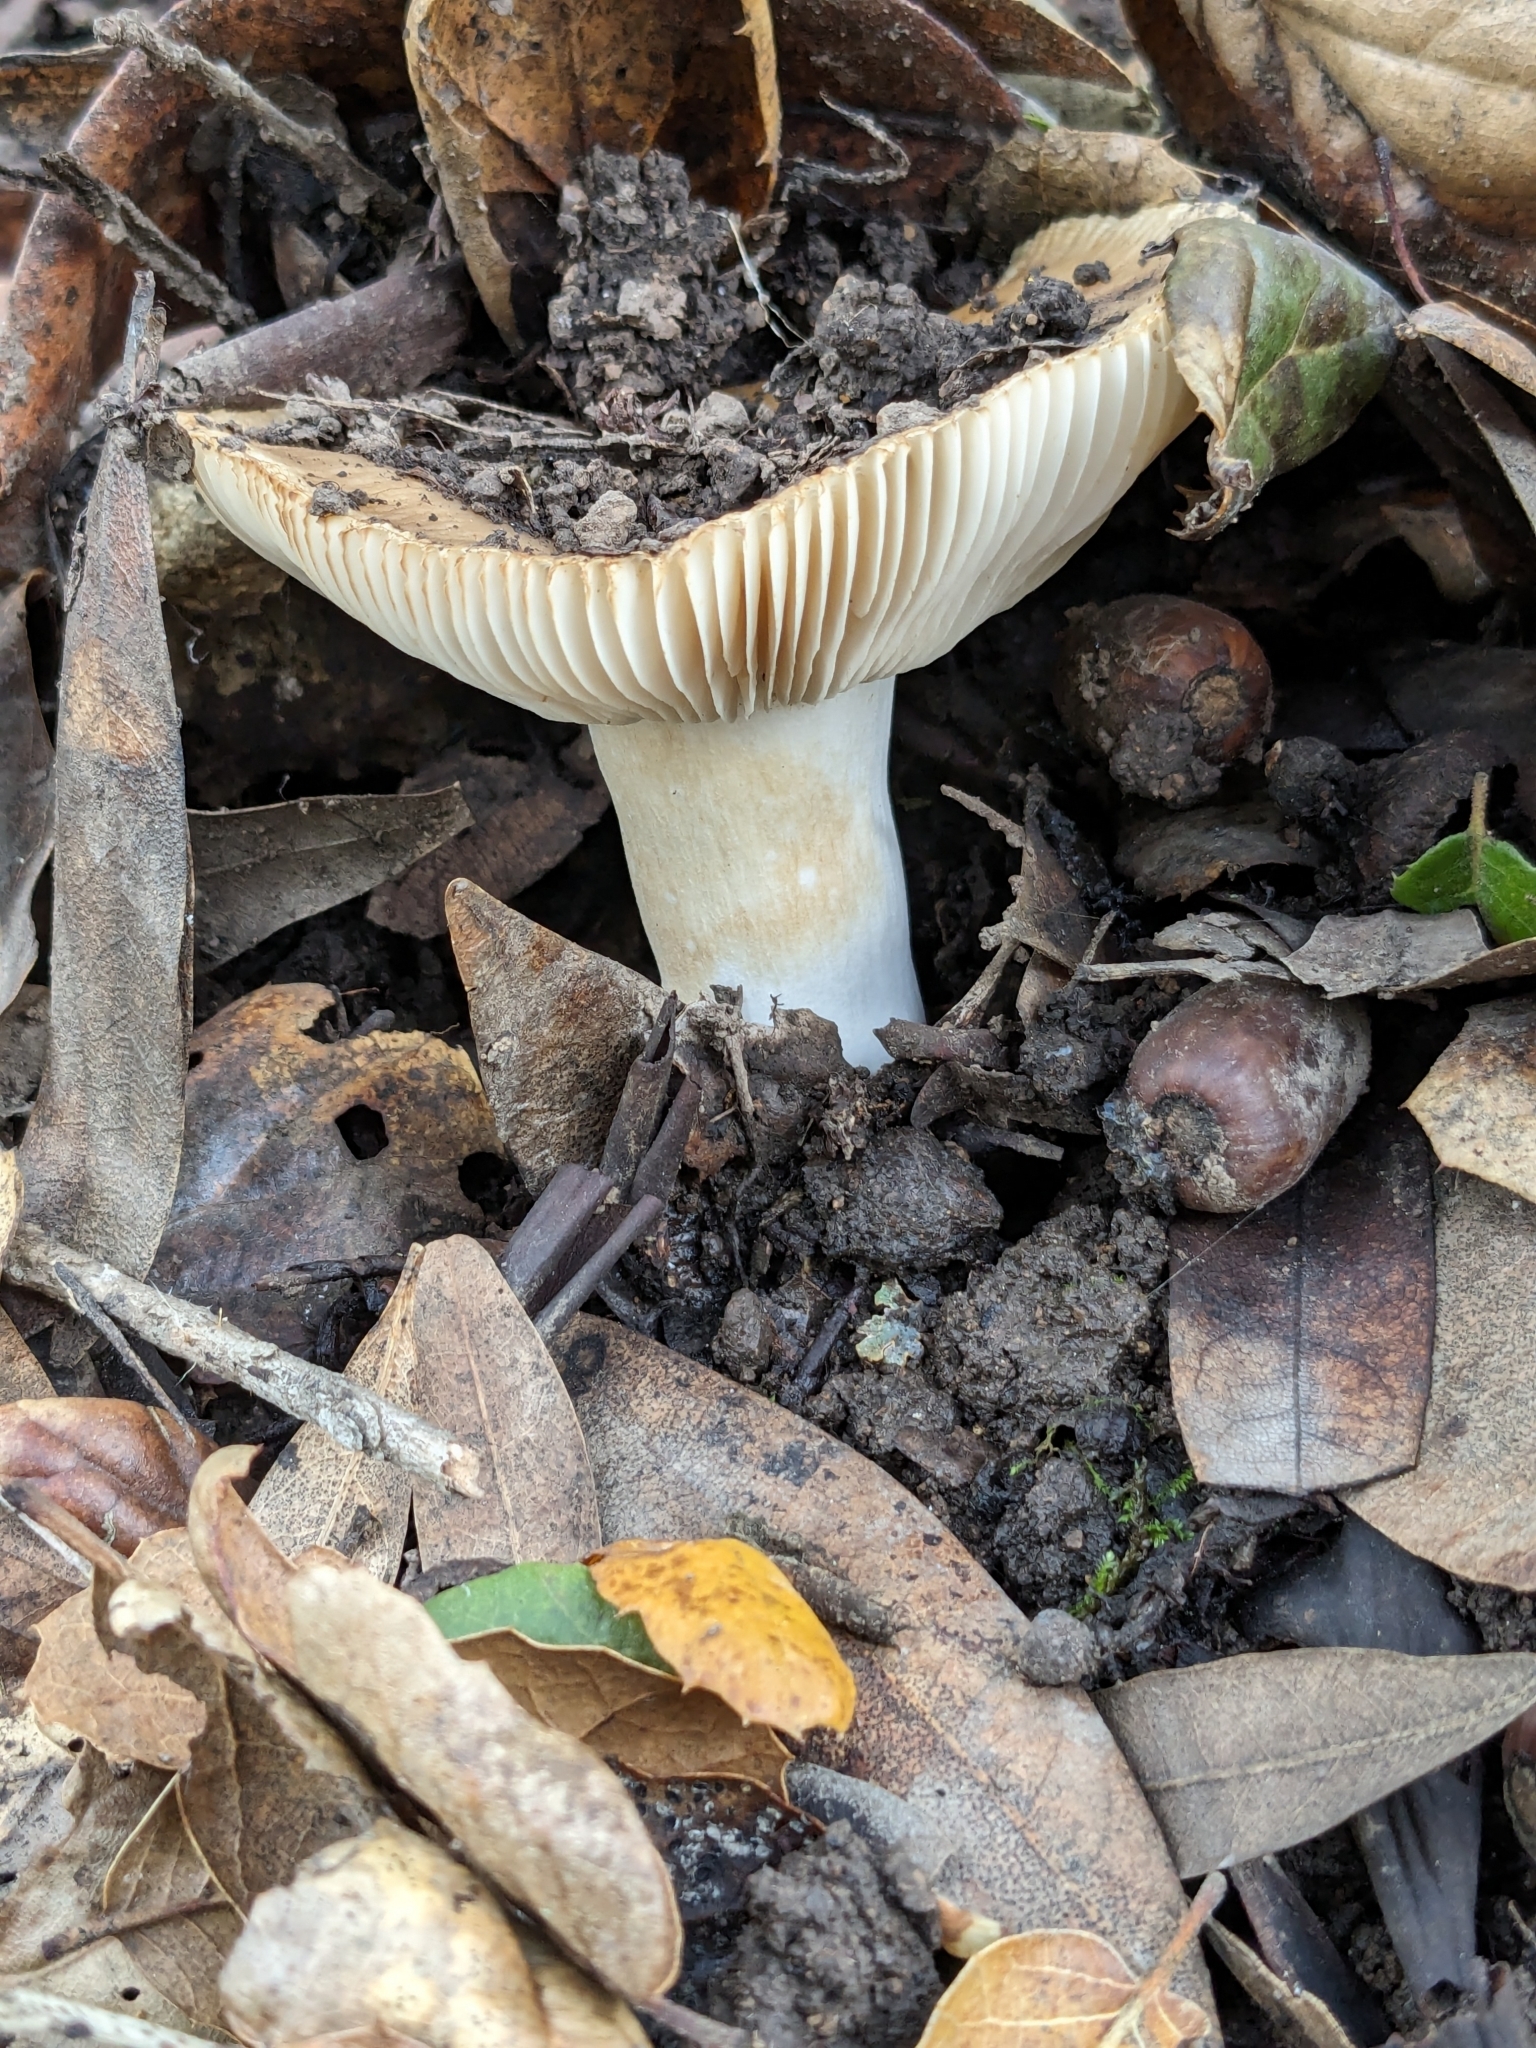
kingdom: Fungi
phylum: Basidiomycota
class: Agaricomycetes
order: Russulales
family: Russulaceae
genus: Russula
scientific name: Russula cerolens
